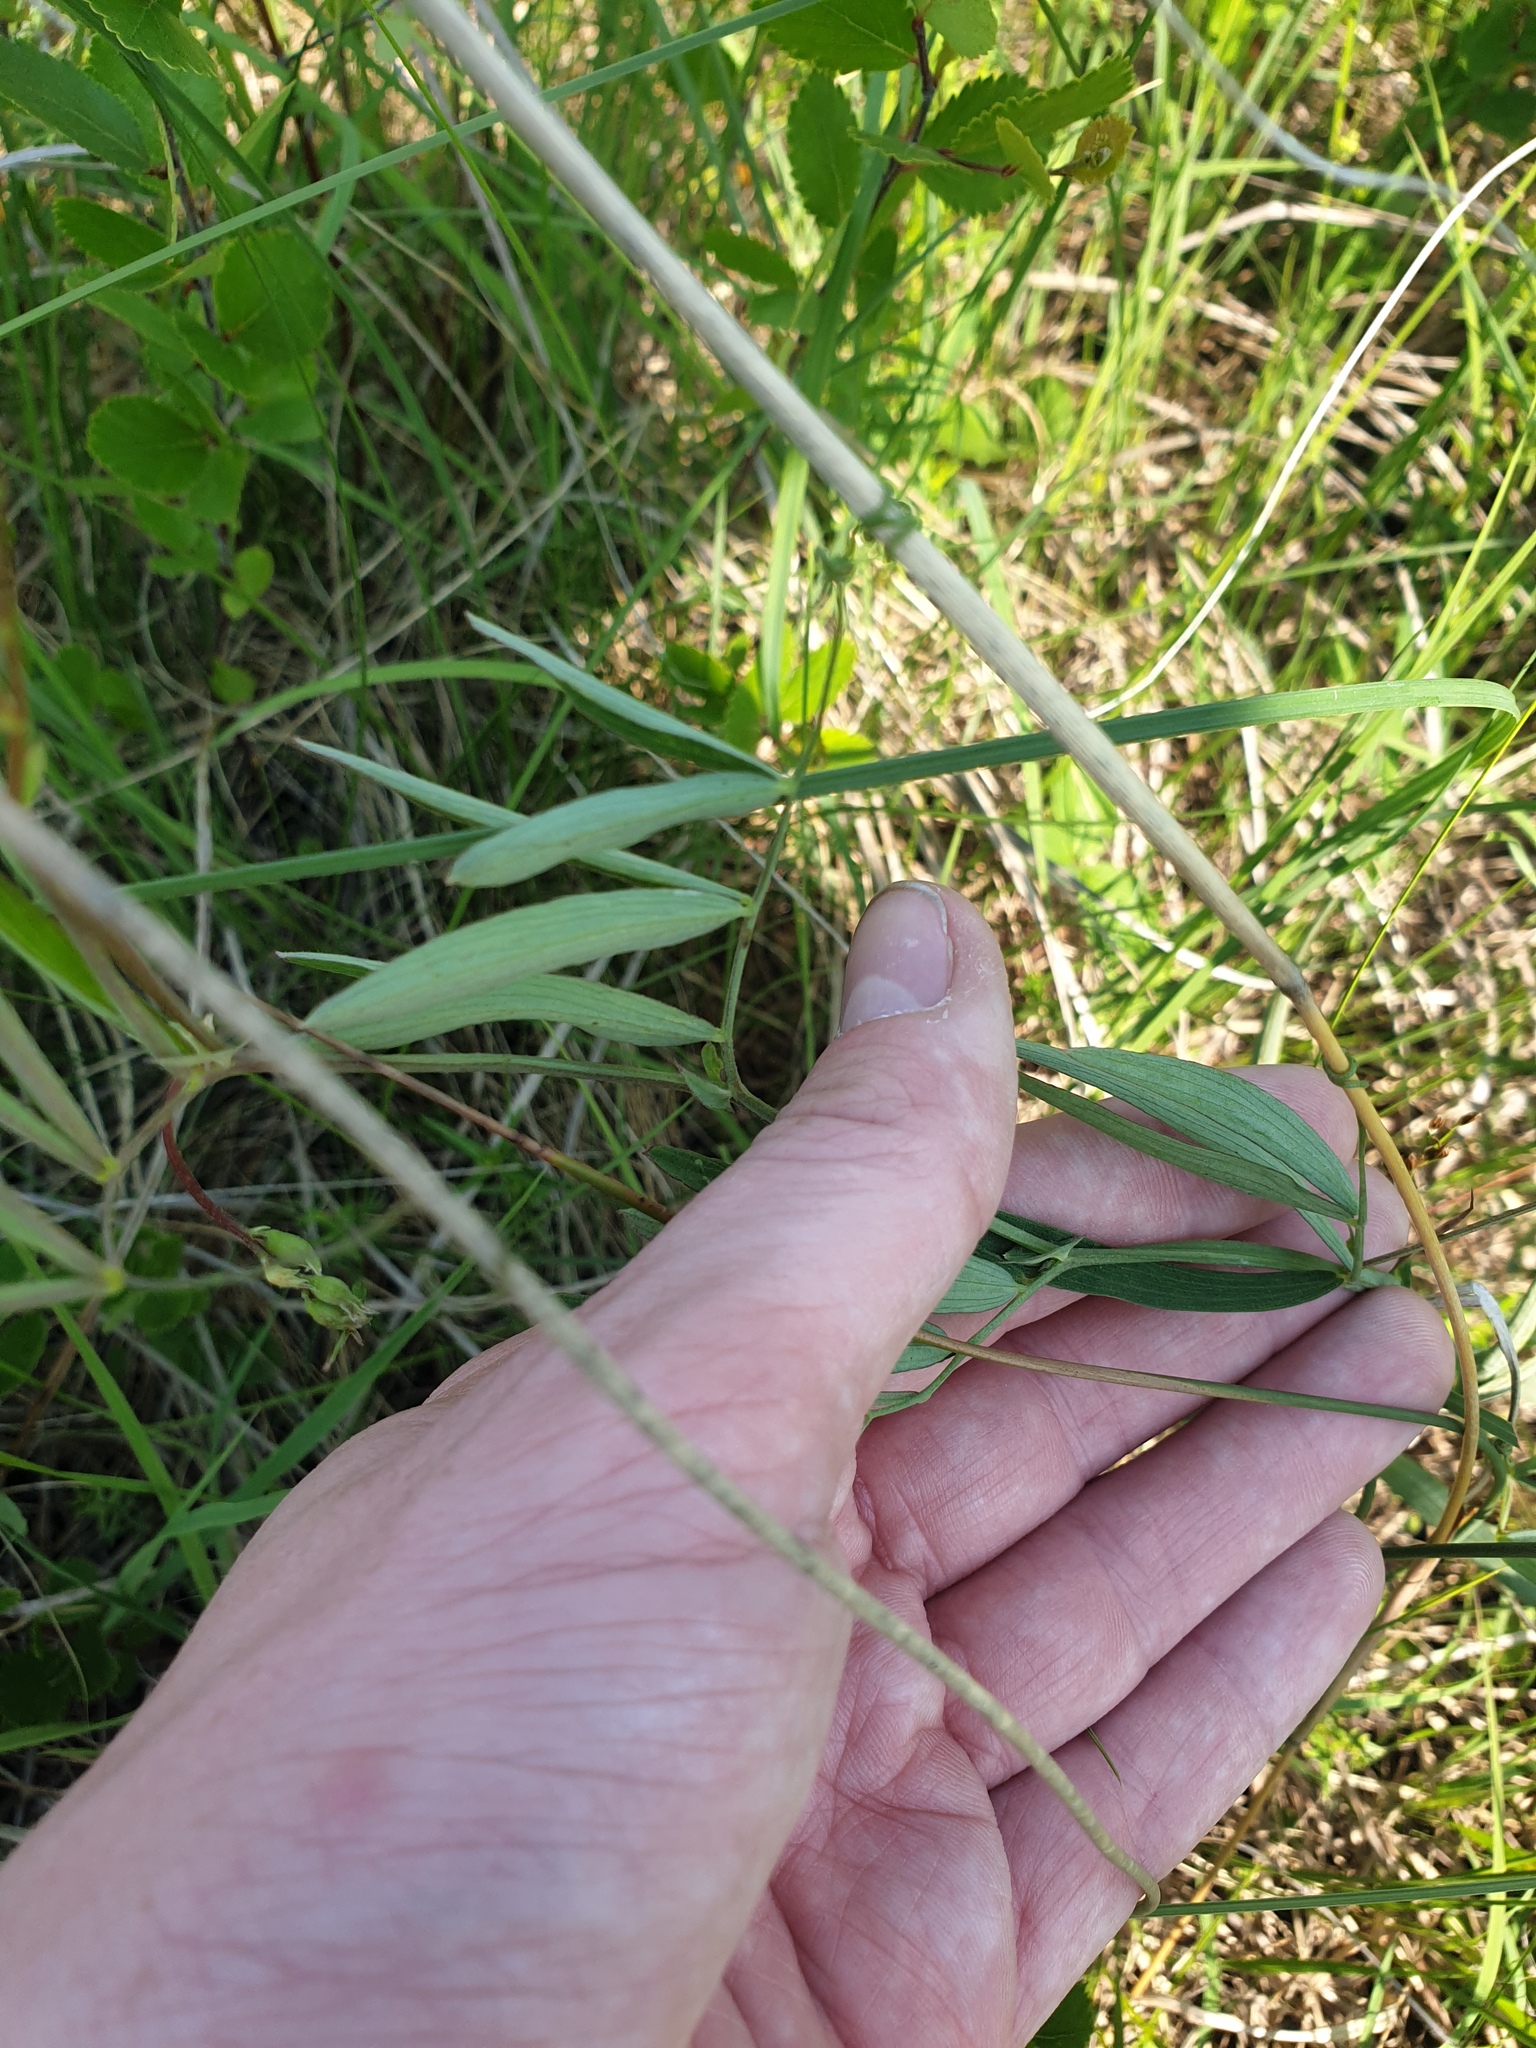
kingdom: Plantae
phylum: Tracheophyta
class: Magnoliopsida
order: Fabales
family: Fabaceae
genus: Lathyrus
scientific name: Lathyrus palustris
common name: Marsh pea
